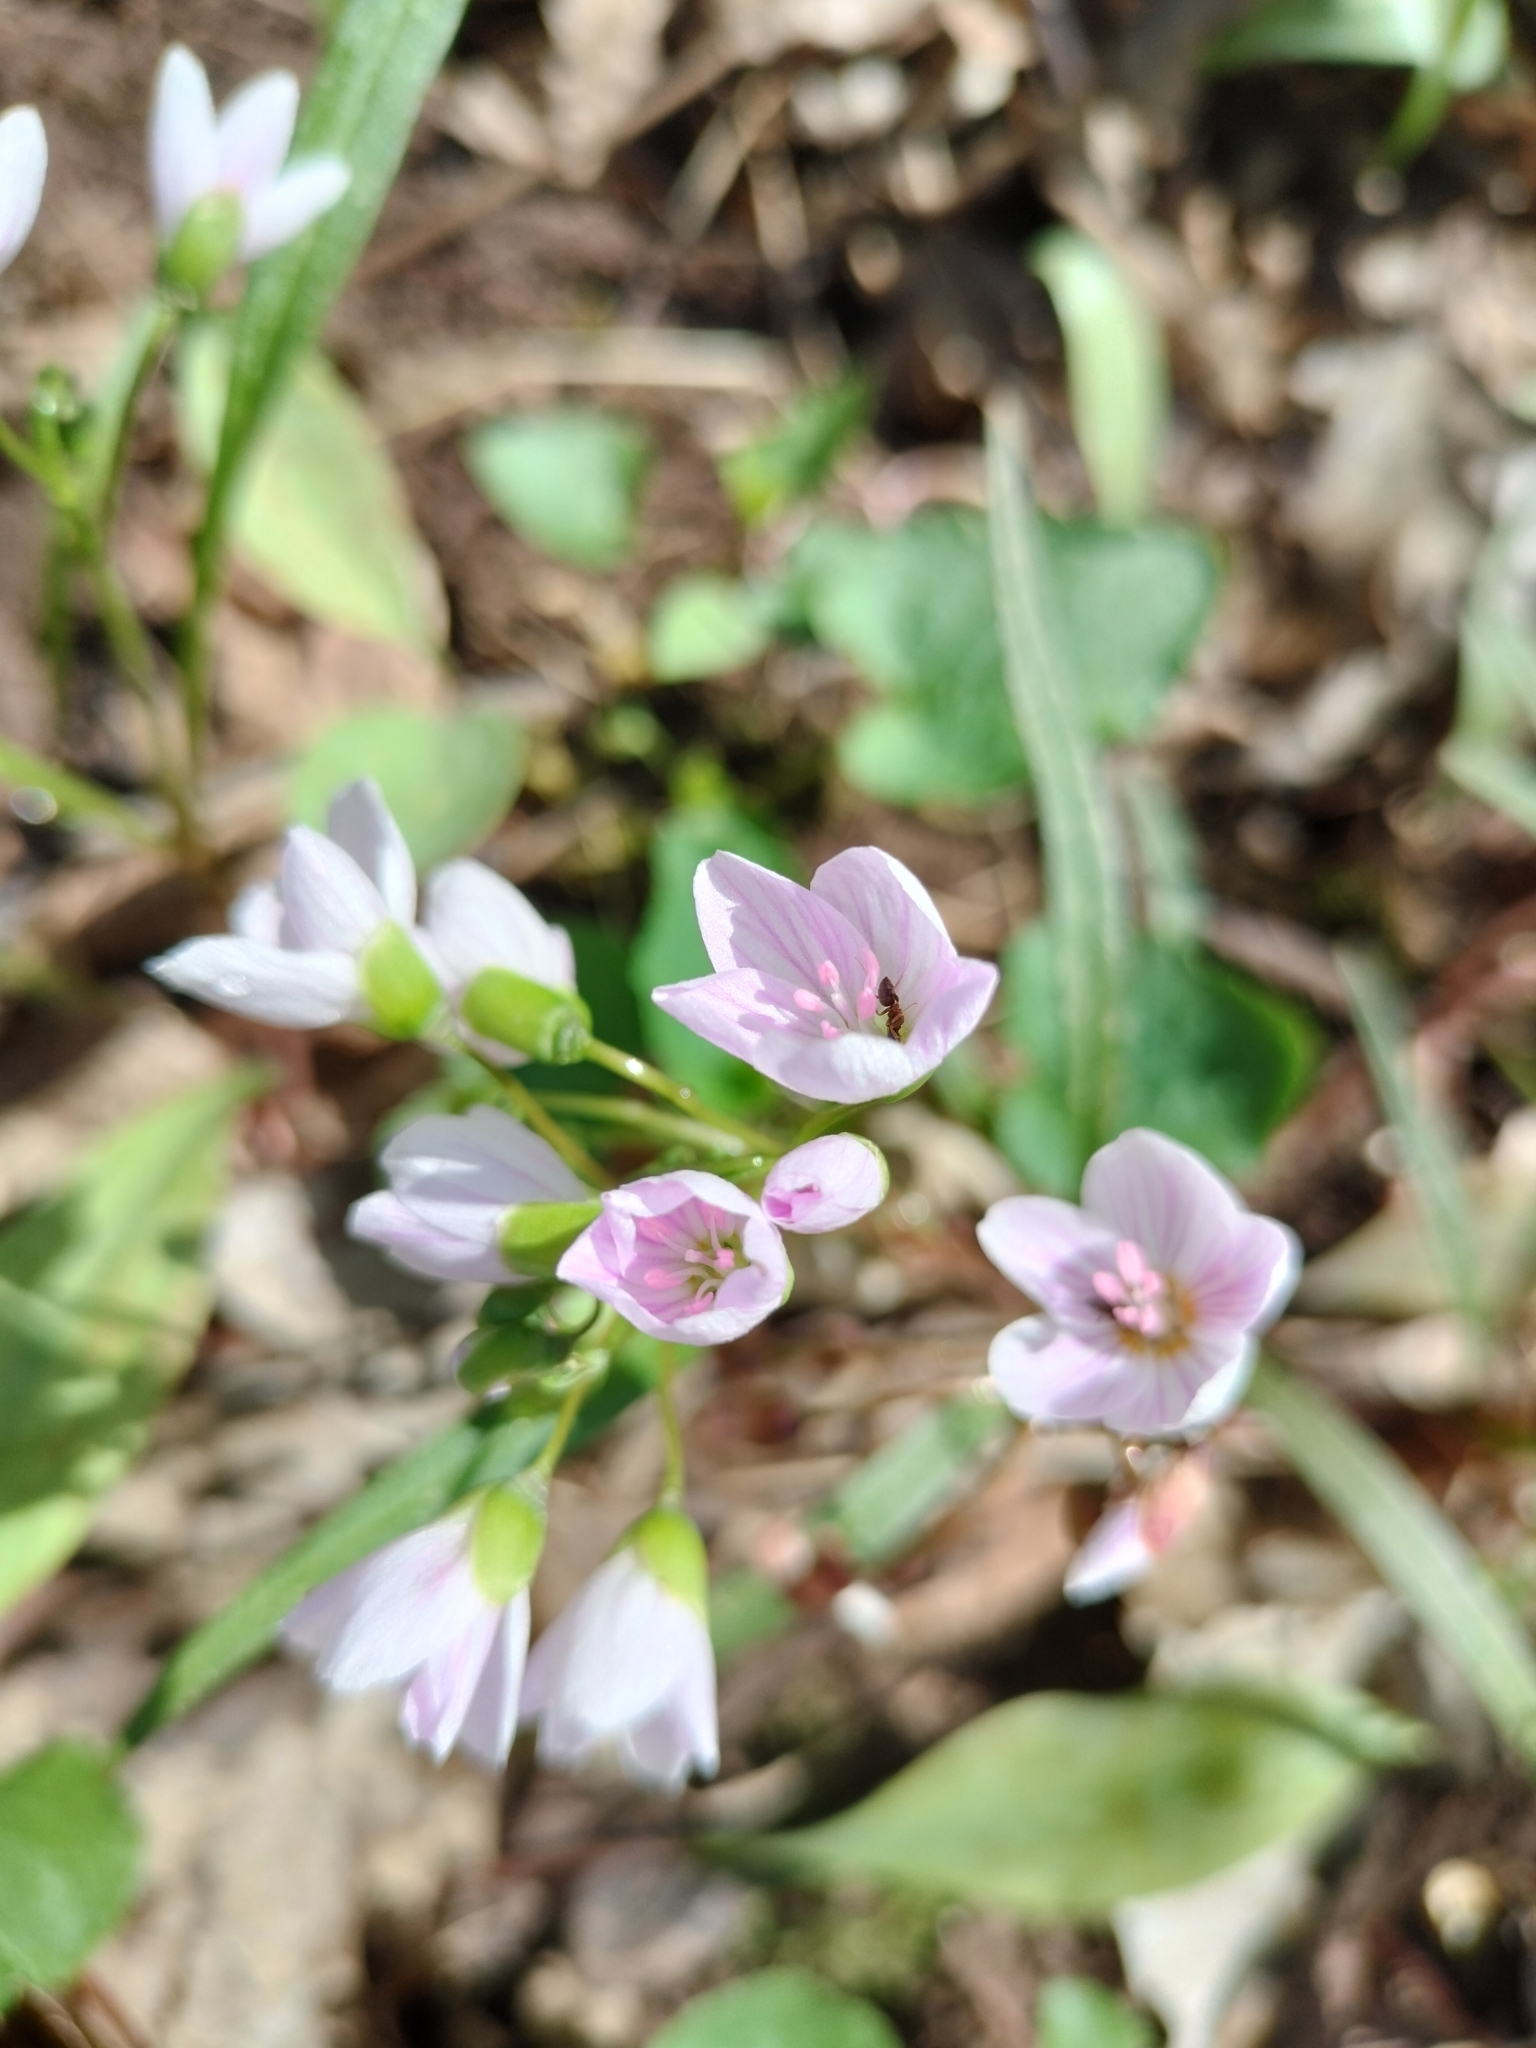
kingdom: Plantae
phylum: Tracheophyta
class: Magnoliopsida
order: Caryophyllales
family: Montiaceae
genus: Claytonia
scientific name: Claytonia virginica
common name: Virginia springbeauty
